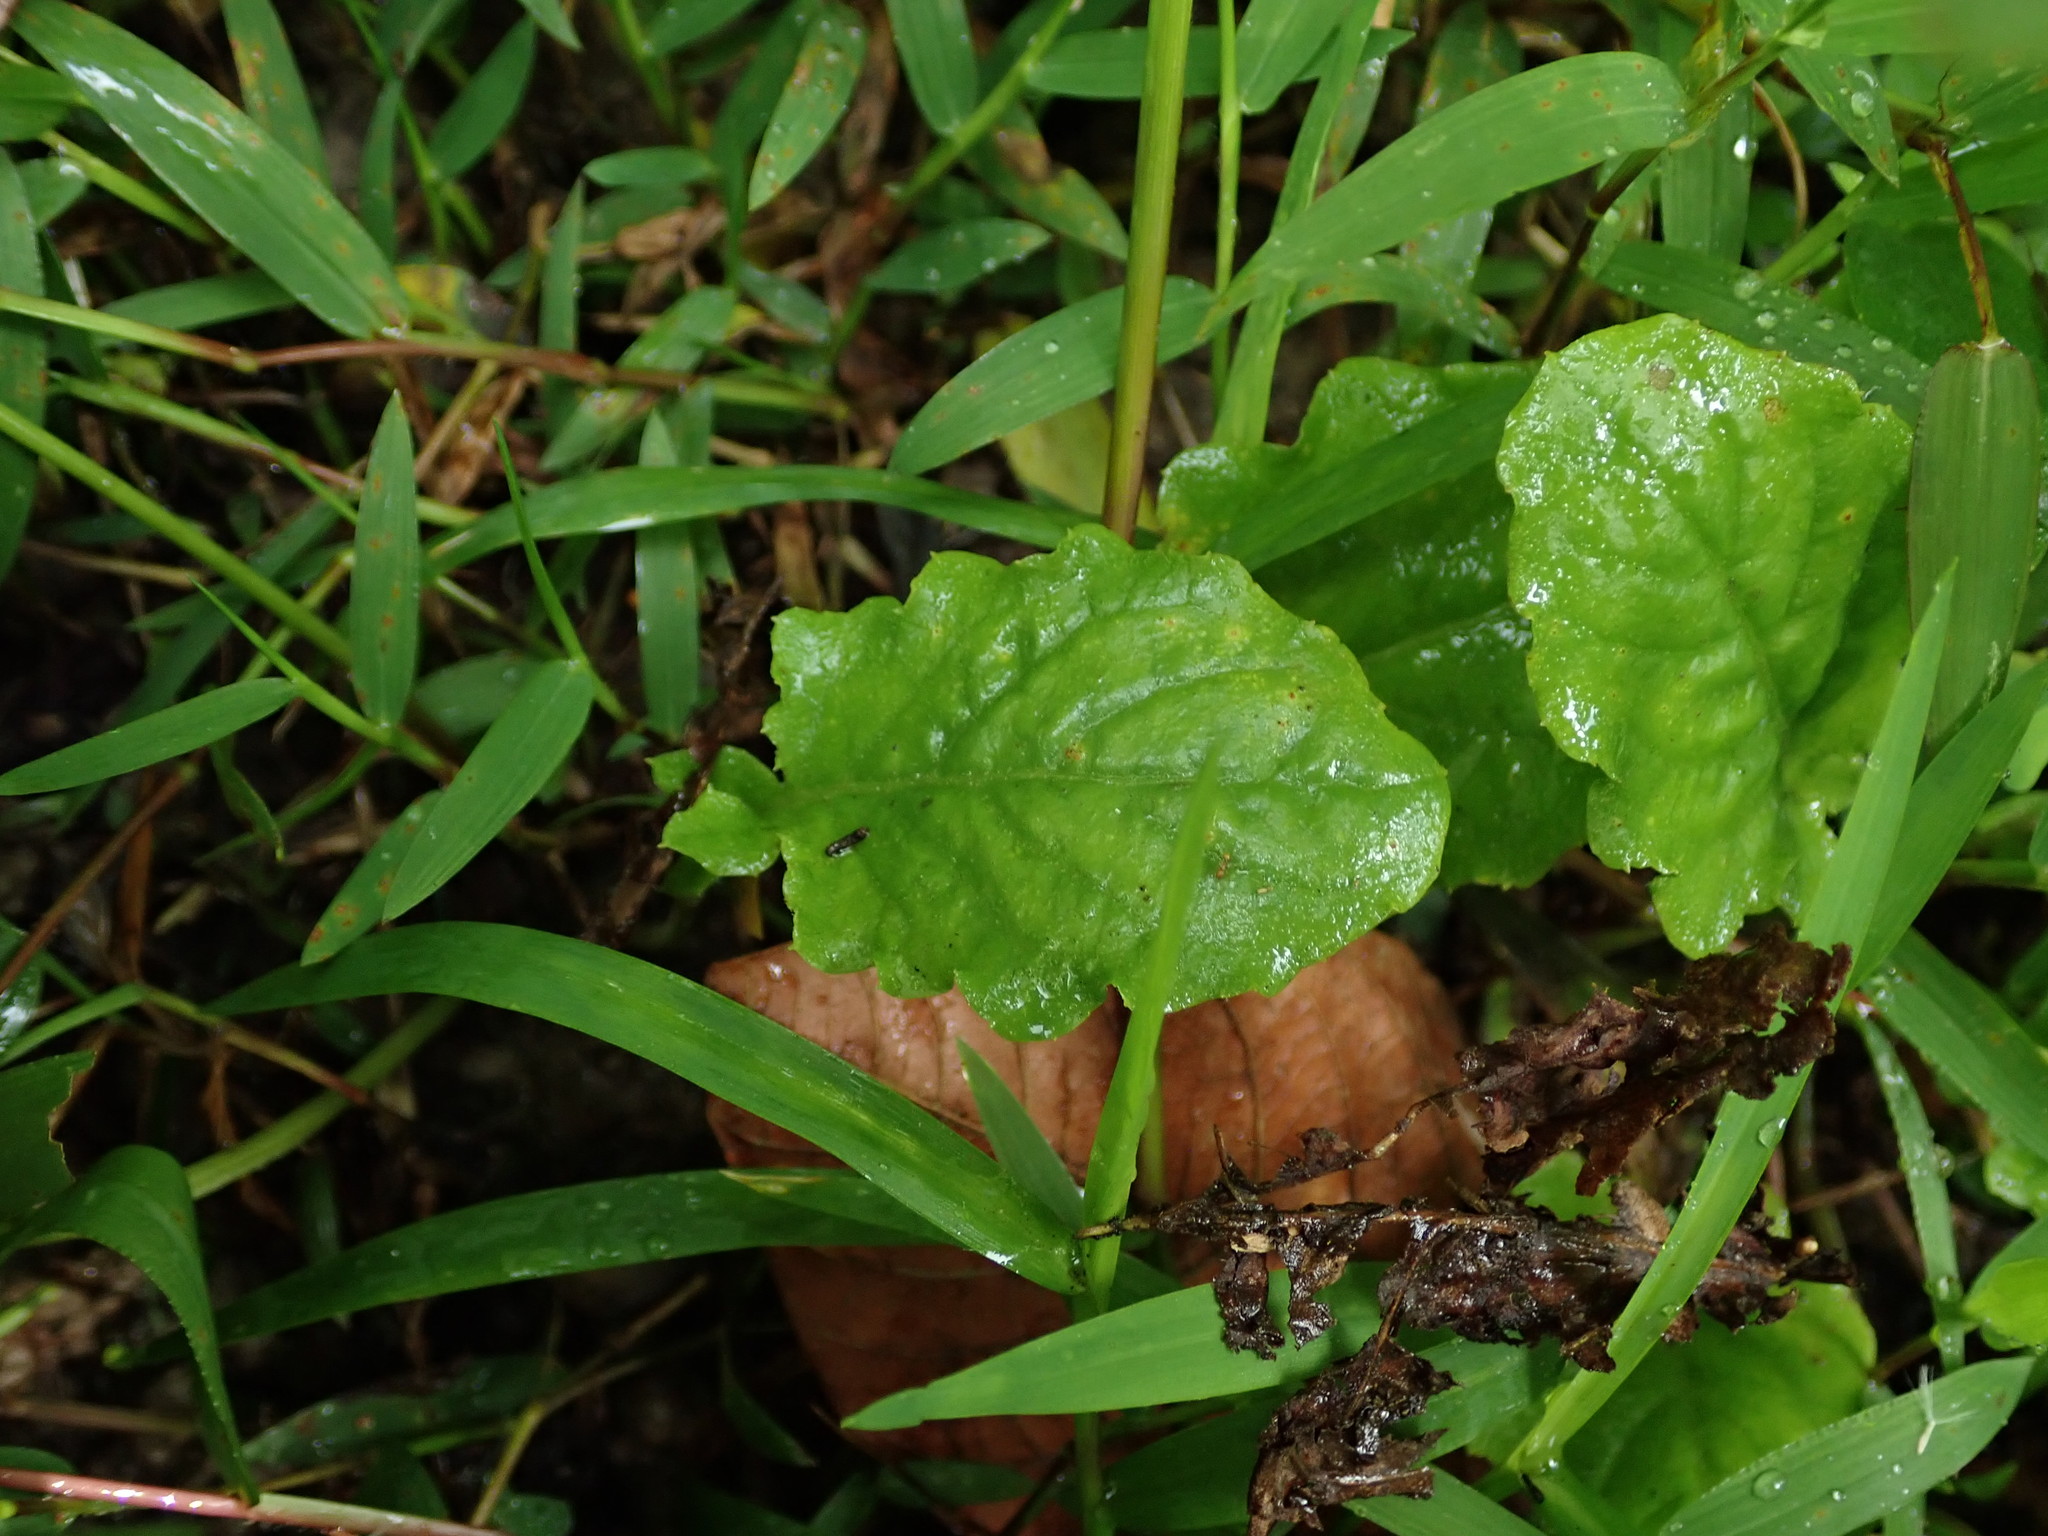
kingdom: Plantae
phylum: Tracheophyta
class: Magnoliopsida
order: Asterales
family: Asteraceae
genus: Youngia
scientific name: Youngia japonica
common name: Oriental false hawksbeard
